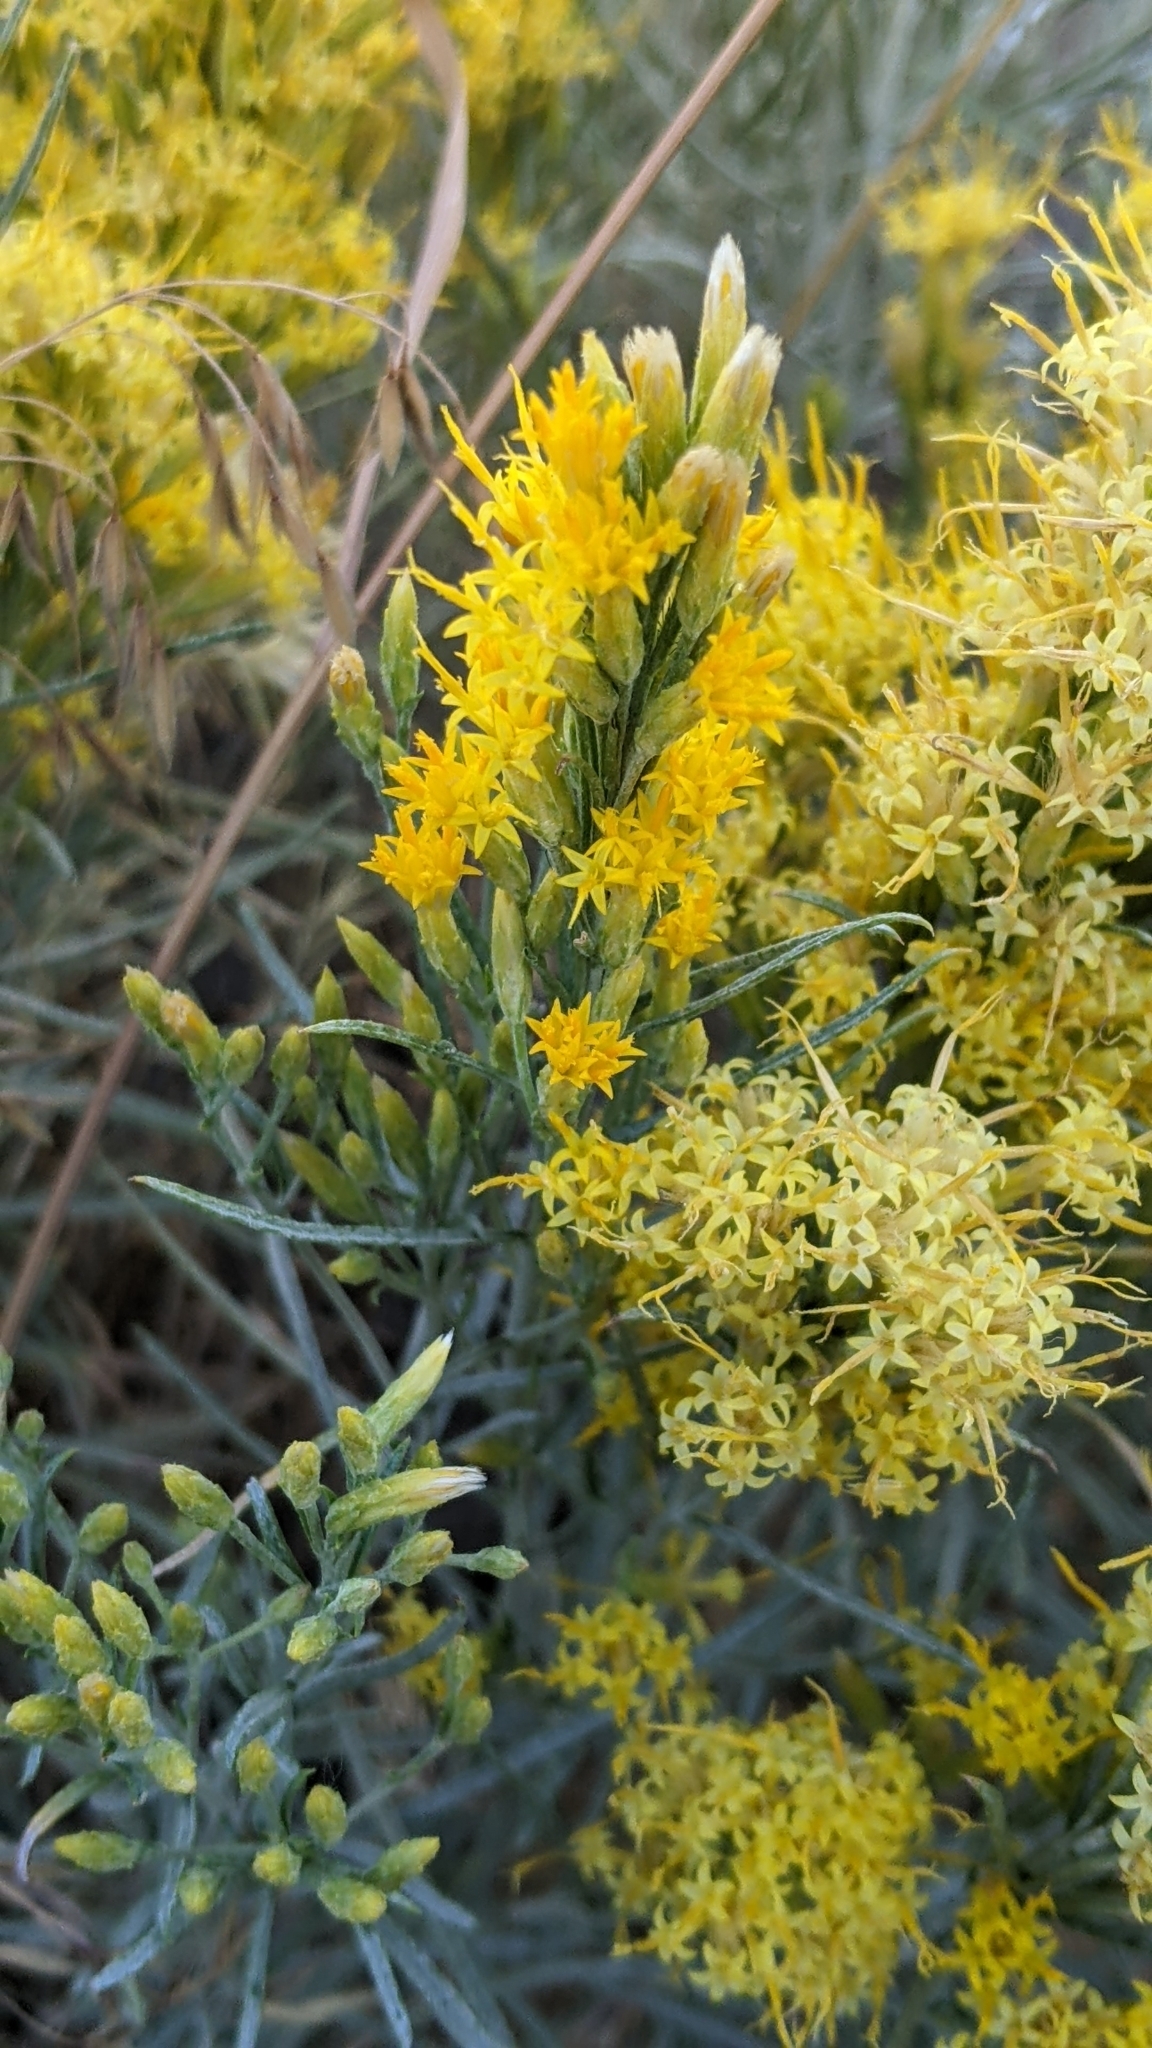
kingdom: Plantae
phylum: Tracheophyta
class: Magnoliopsida
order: Asterales
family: Asteraceae
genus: Ericameria
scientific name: Ericameria nauseosa
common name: Rubber rabbitbrush
